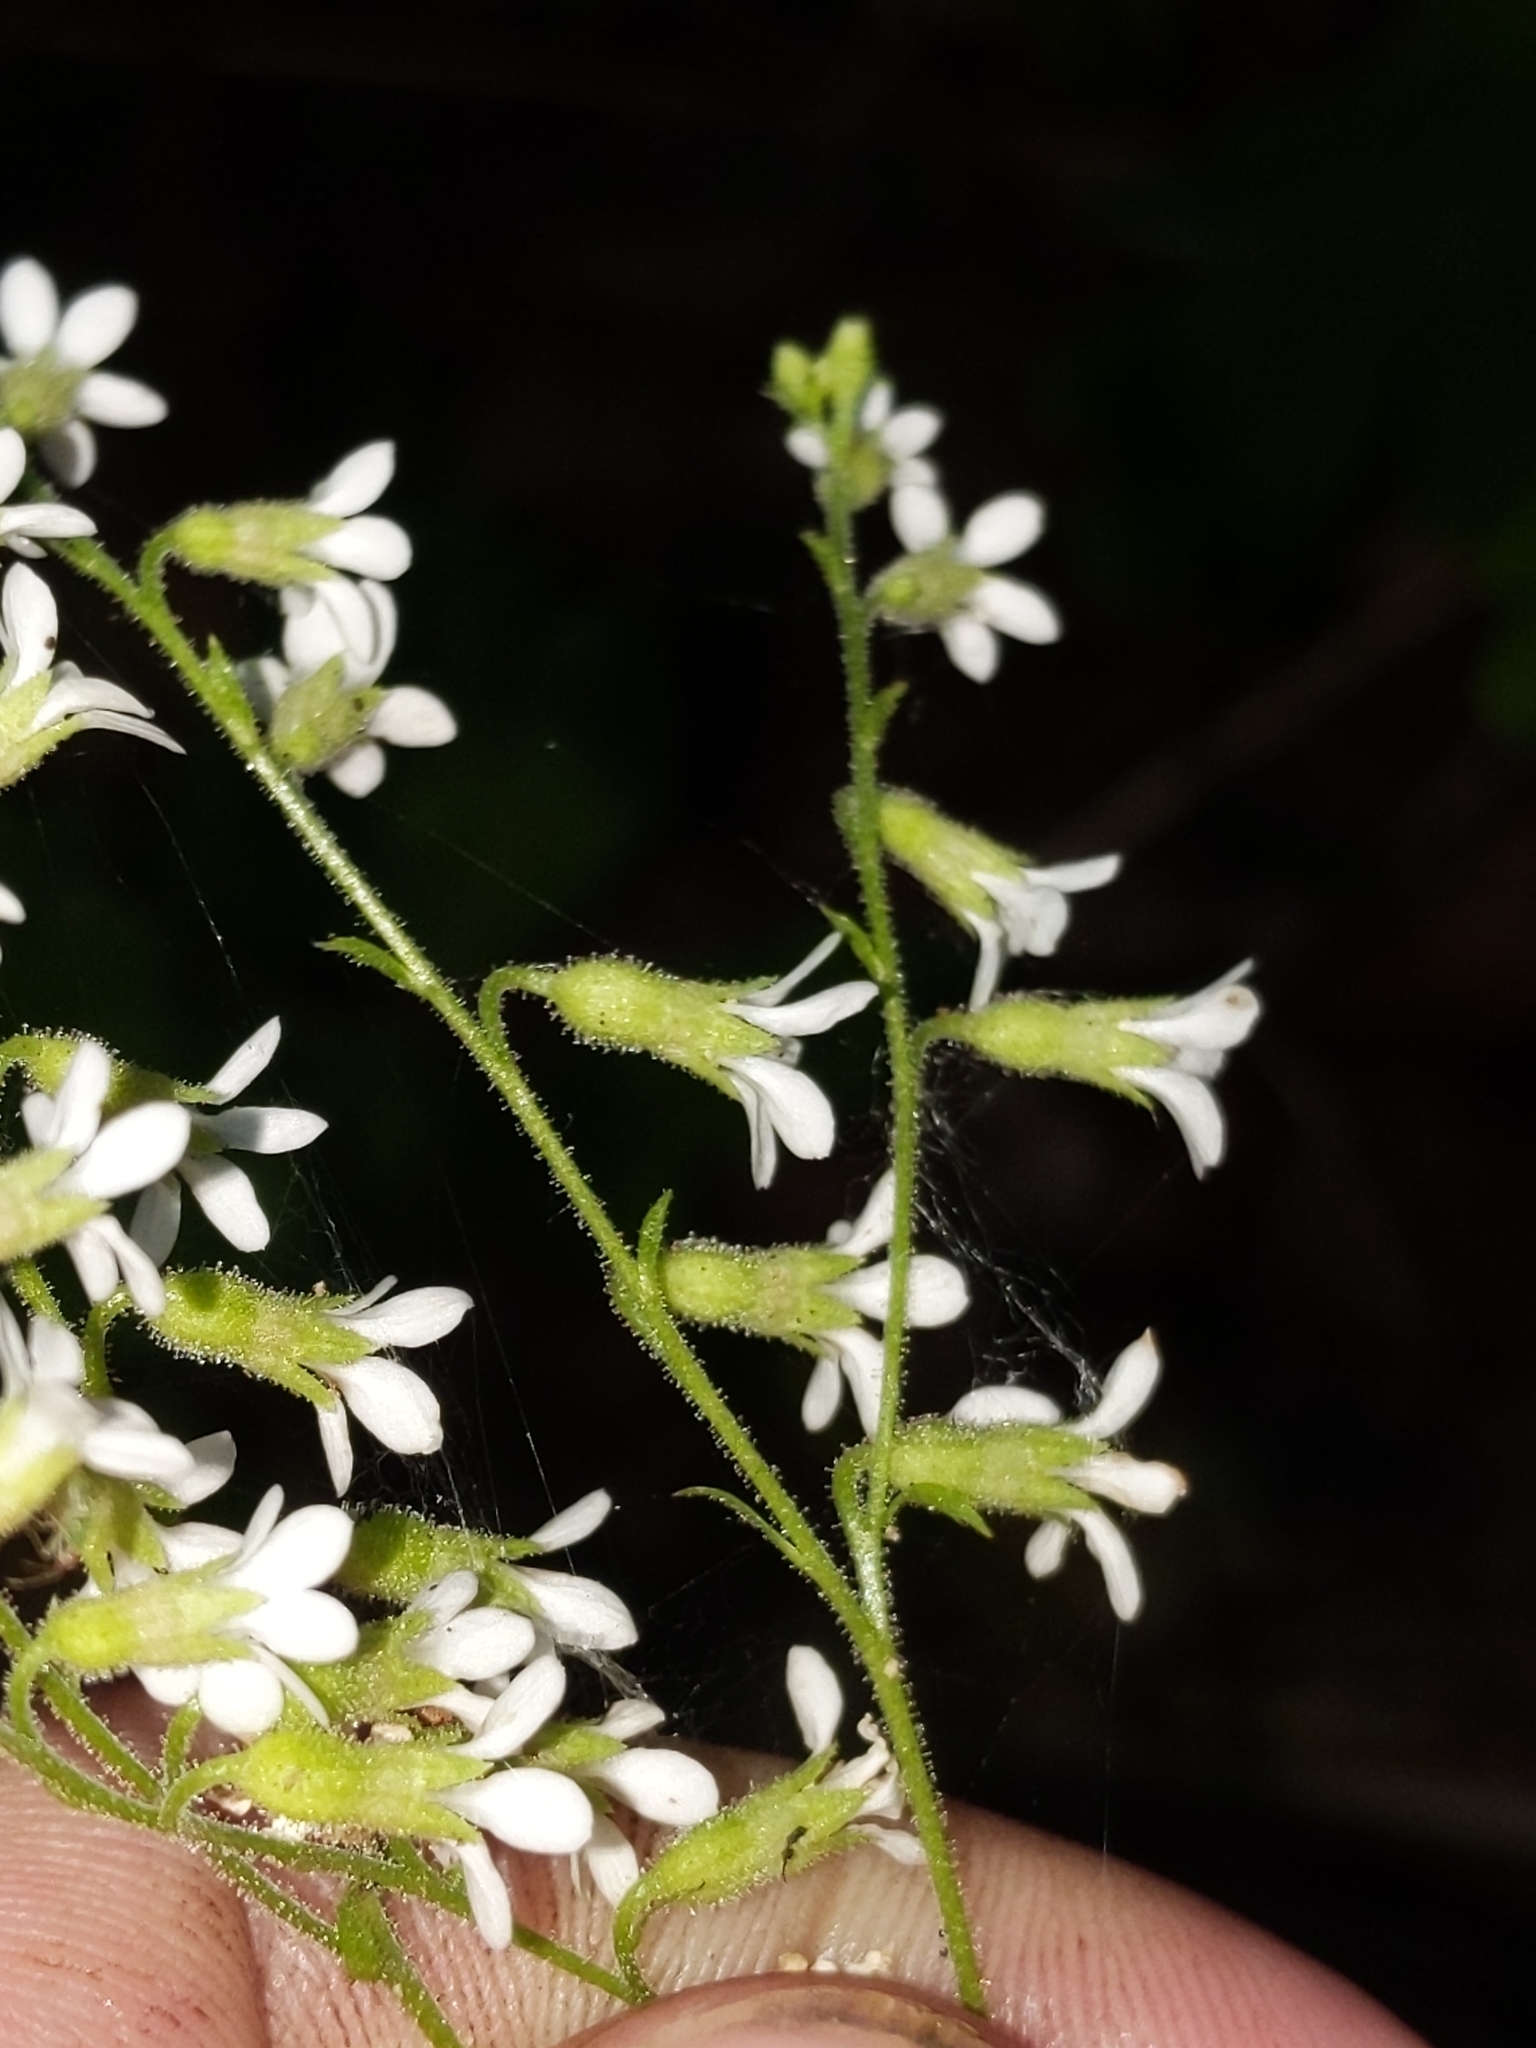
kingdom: Plantae
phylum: Tracheophyta
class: Magnoliopsida
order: Saxifragales
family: Saxifragaceae
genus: Boykinia
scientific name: Boykinia occidentalis
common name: Coast boykinia
